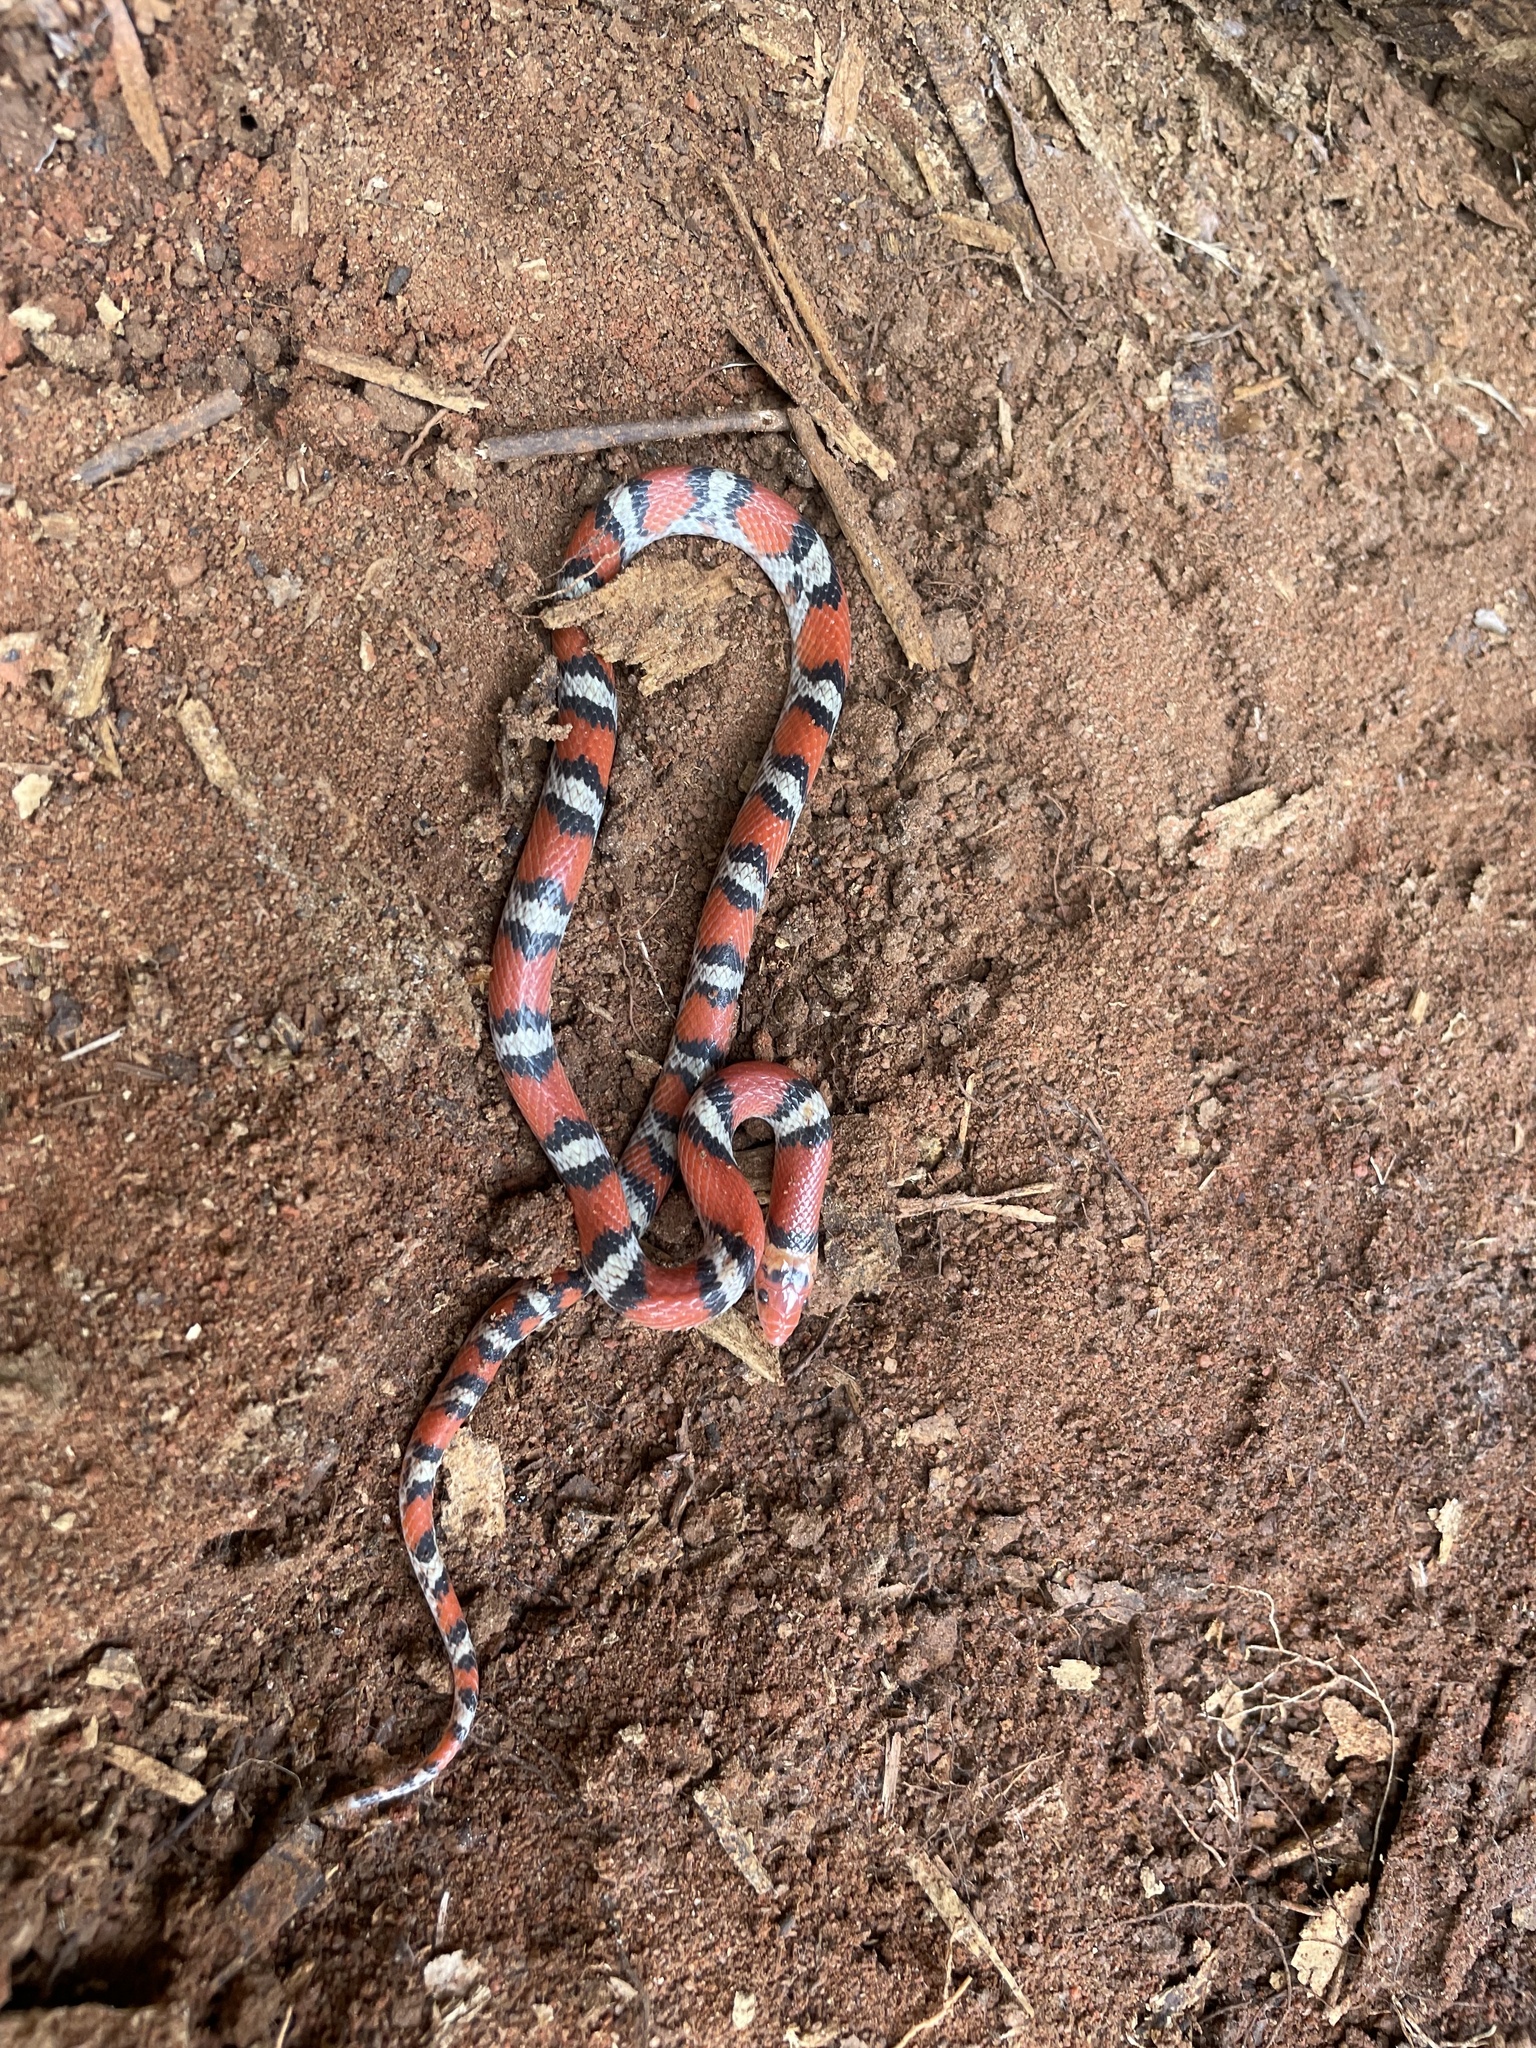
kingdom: Animalia
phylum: Chordata
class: Squamata
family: Colubridae
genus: Cemophora
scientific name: Cemophora coccinea
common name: Scarlet snake
